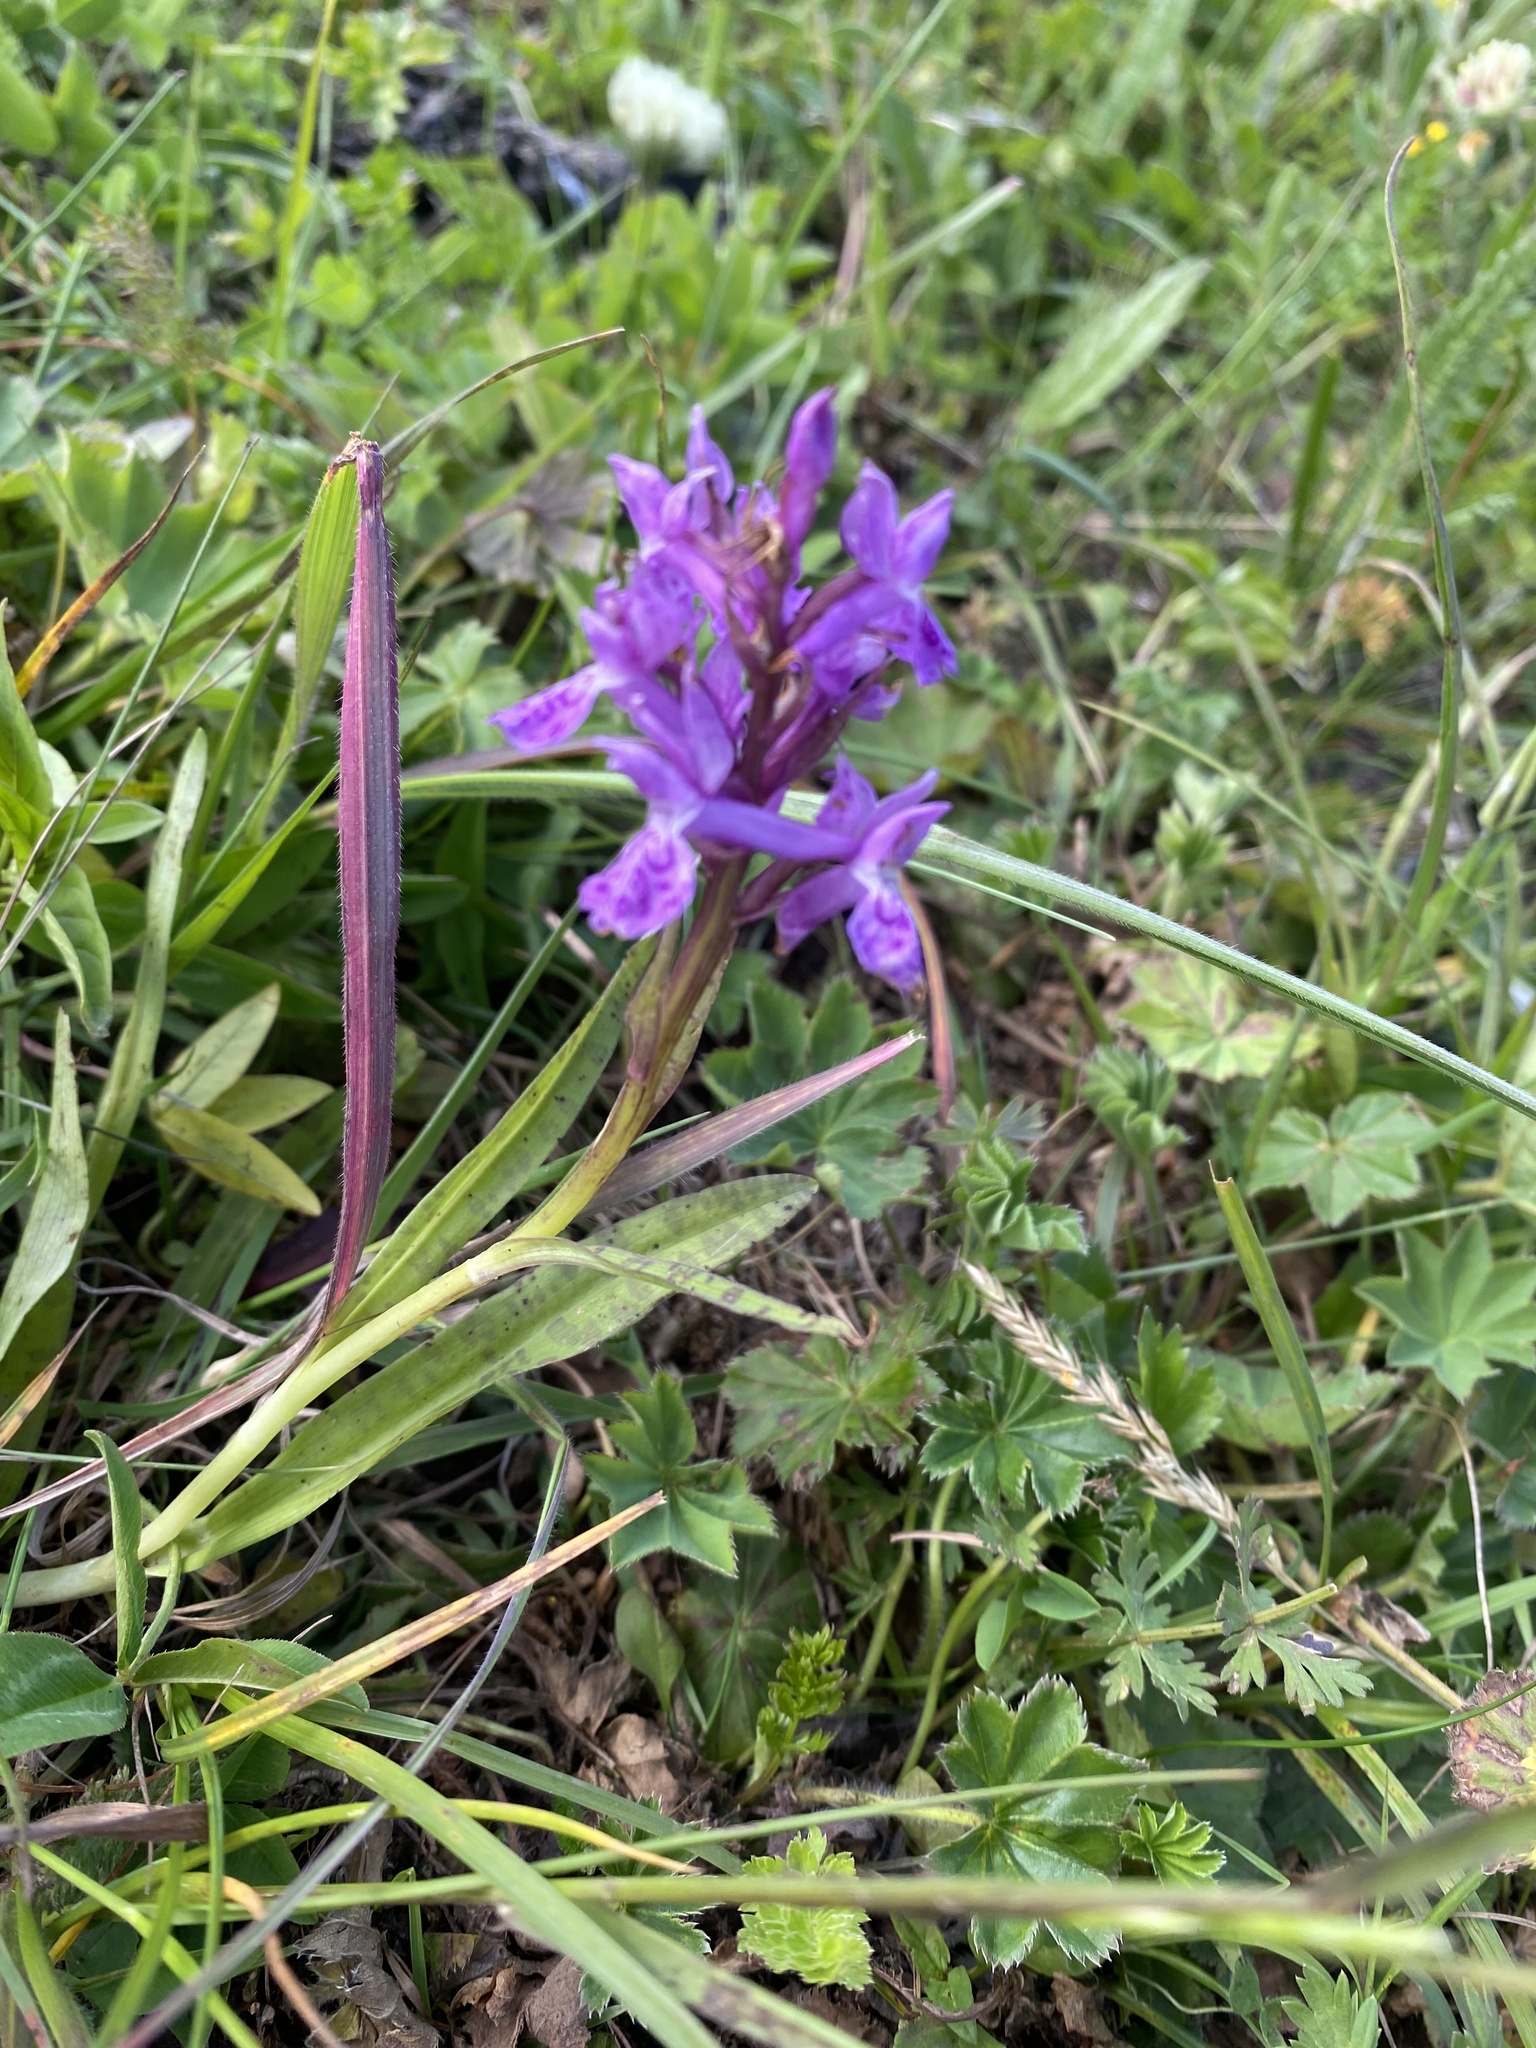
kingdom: Plantae
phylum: Tracheophyta
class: Liliopsida
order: Asparagales
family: Orchidaceae
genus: Dactylorhiza
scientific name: Dactylorhiza euxina
